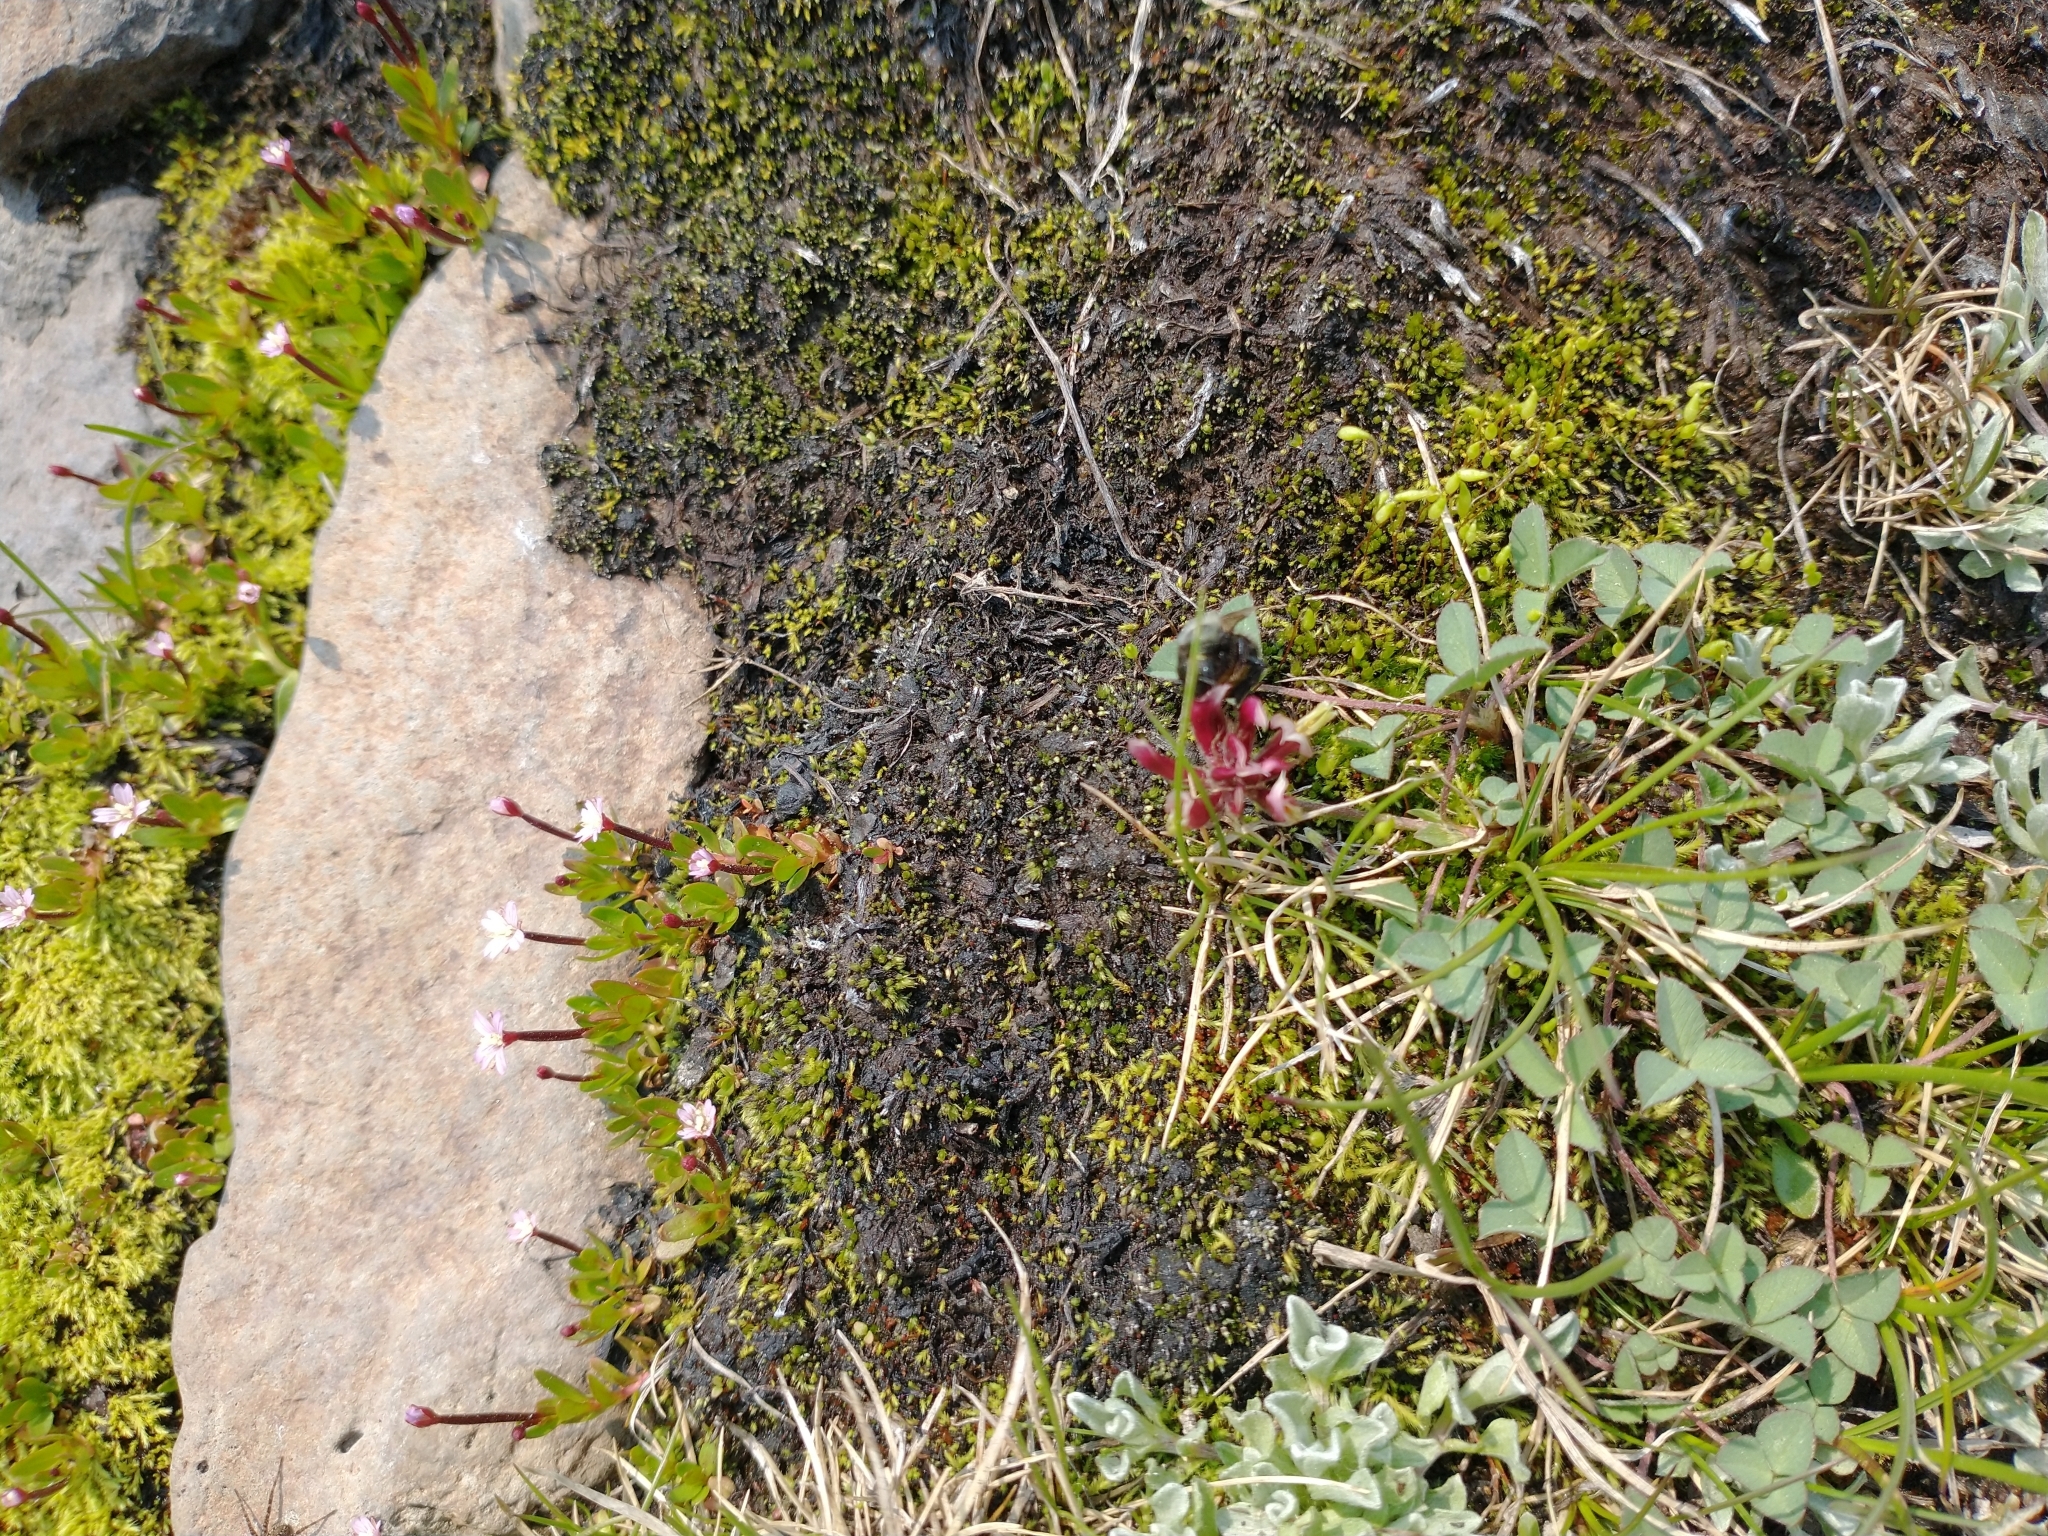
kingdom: Plantae
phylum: Tracheophyta
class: Magnoliopsida
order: Fabales
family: Fabaceae
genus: Trifolium
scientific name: Trifolium longipes
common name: Long-stalk clover
